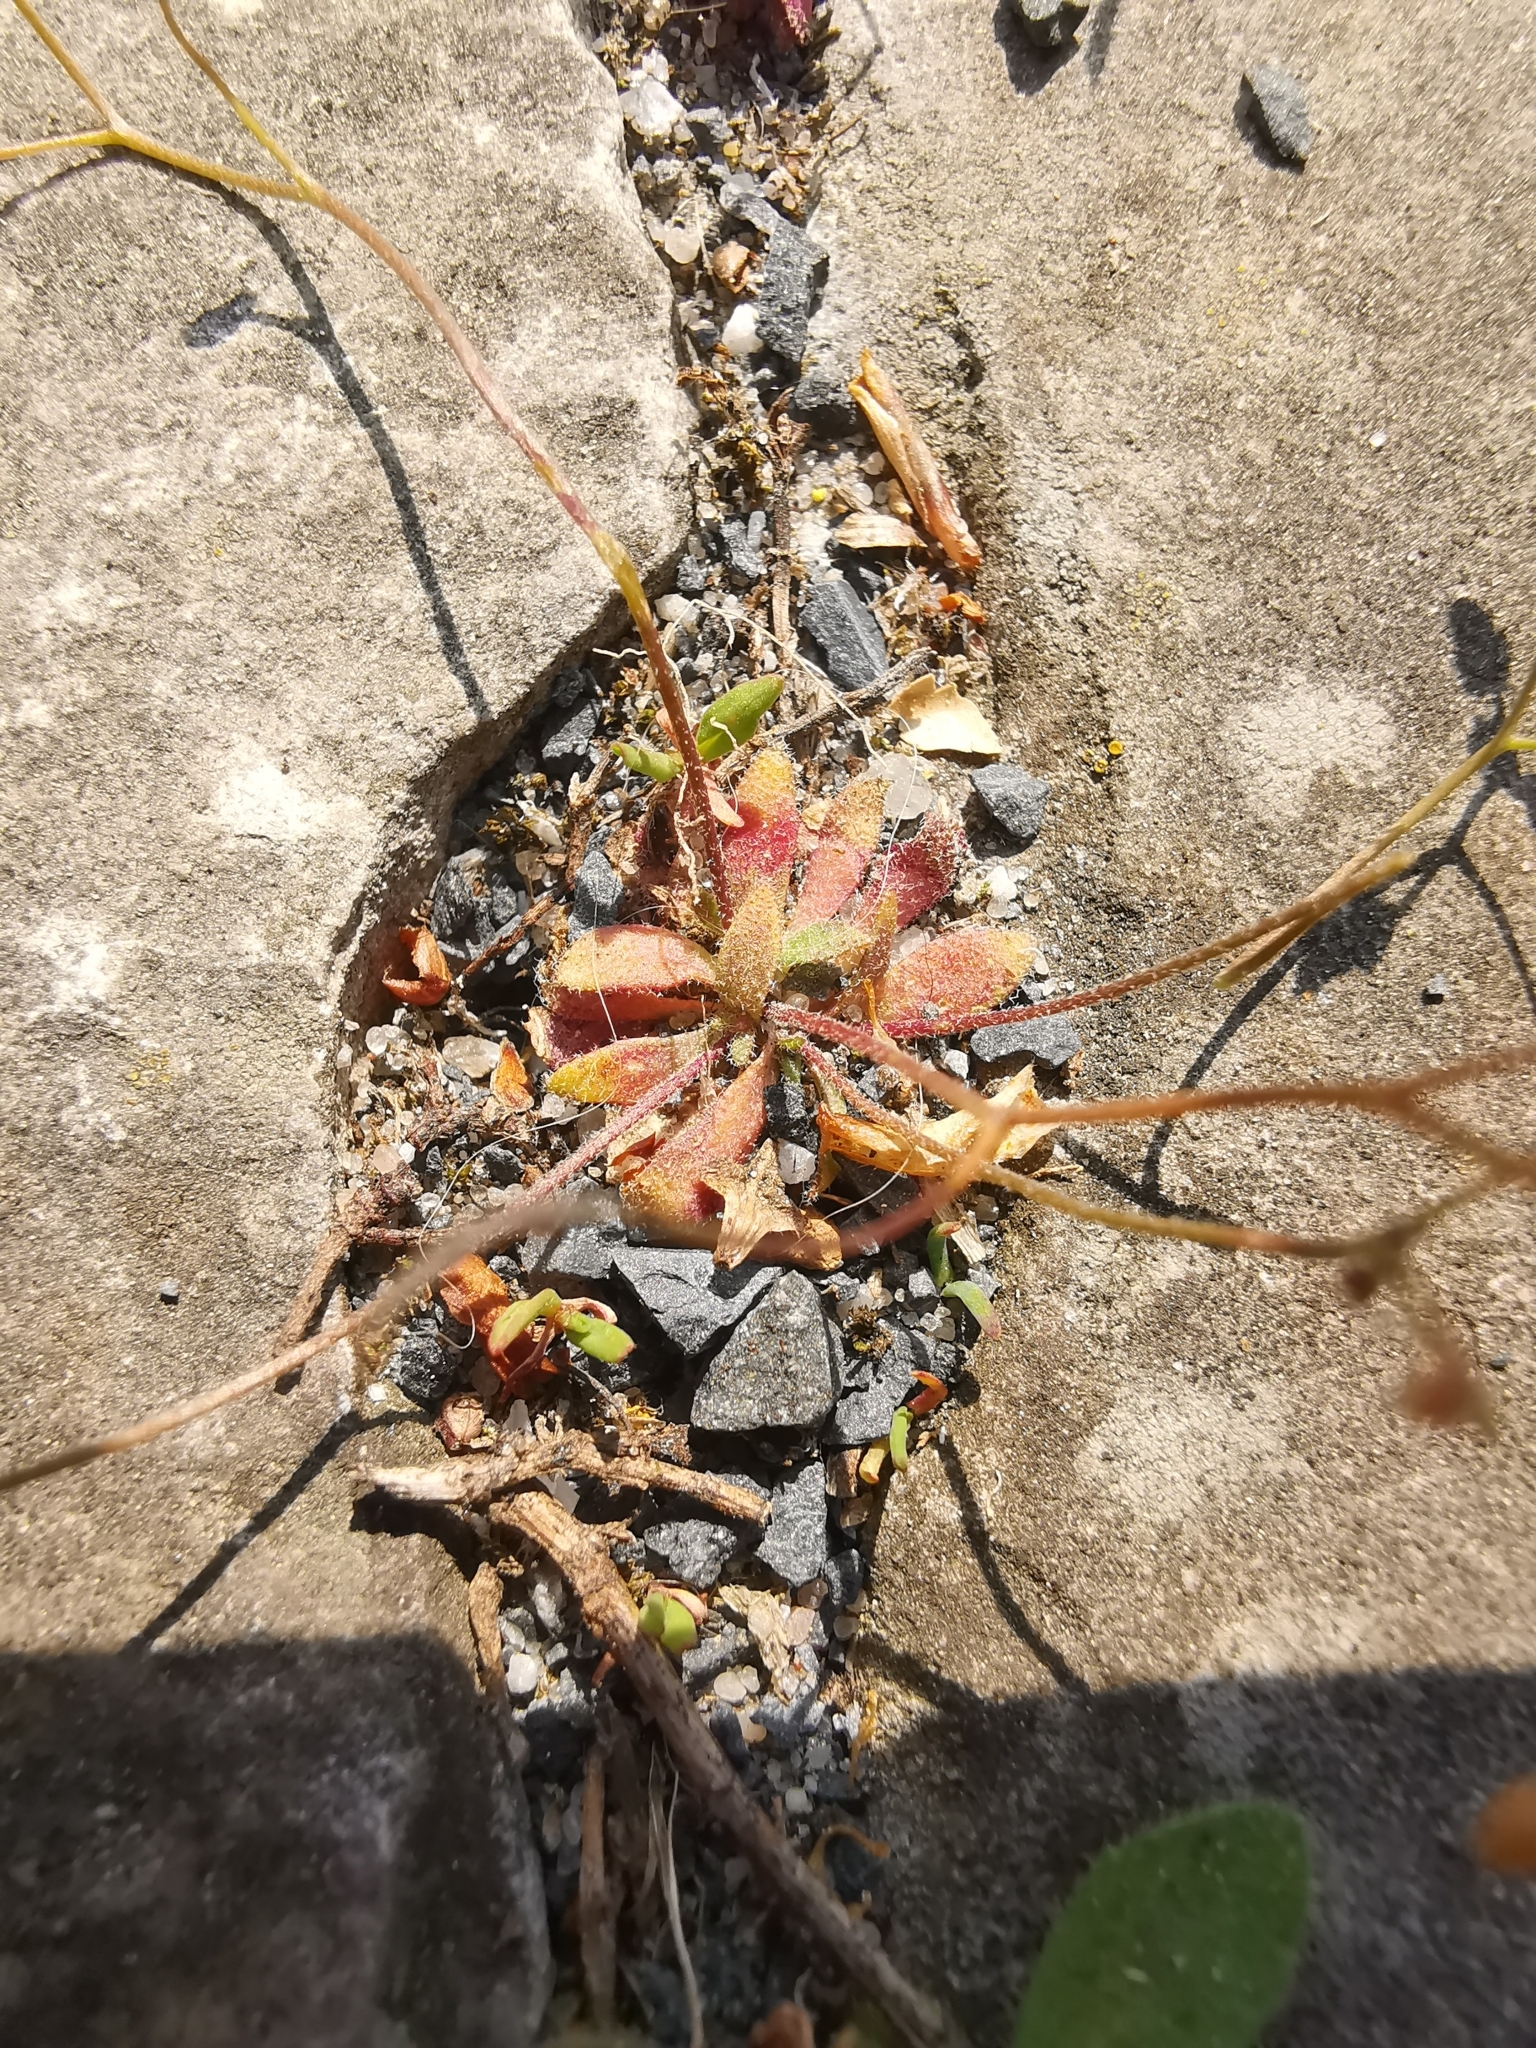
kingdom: Plantae
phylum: Tracheophyta
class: Magnoliopsida
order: Brassicales
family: Brassicaceae
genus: Draba
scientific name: Draba verna
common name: Spring draba
